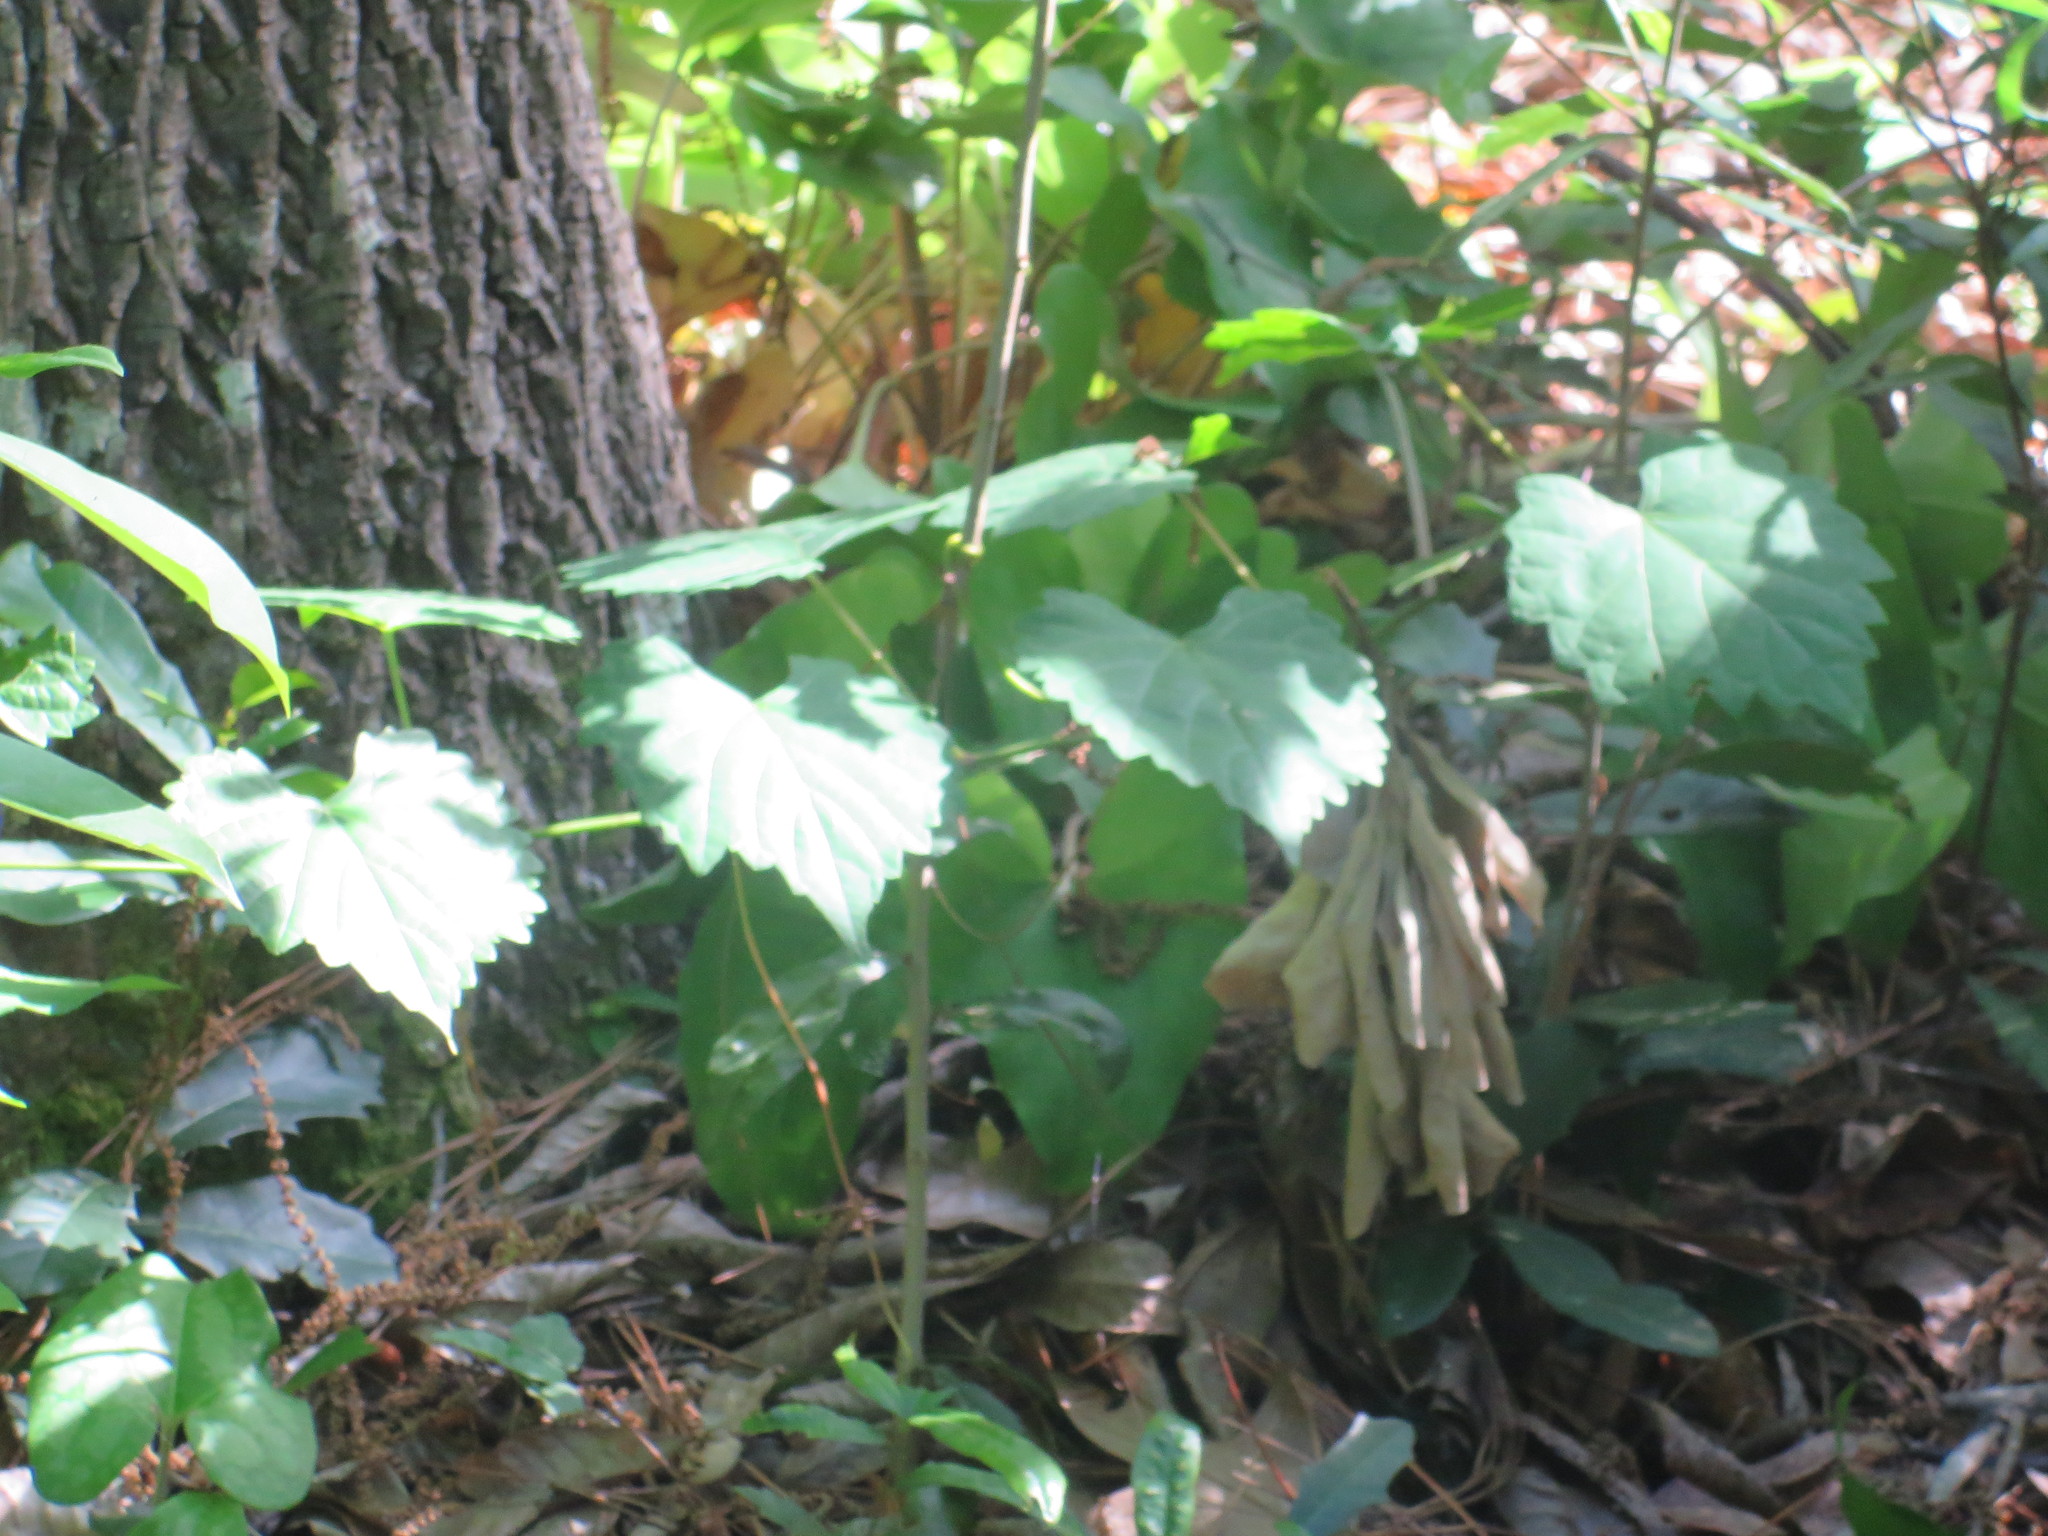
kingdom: Plantae
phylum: Tracheophyta
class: Magnoliopsida
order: Vitales
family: Vitaceae
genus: Vitis
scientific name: Vitis rotundifolia
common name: Muscadine grape
